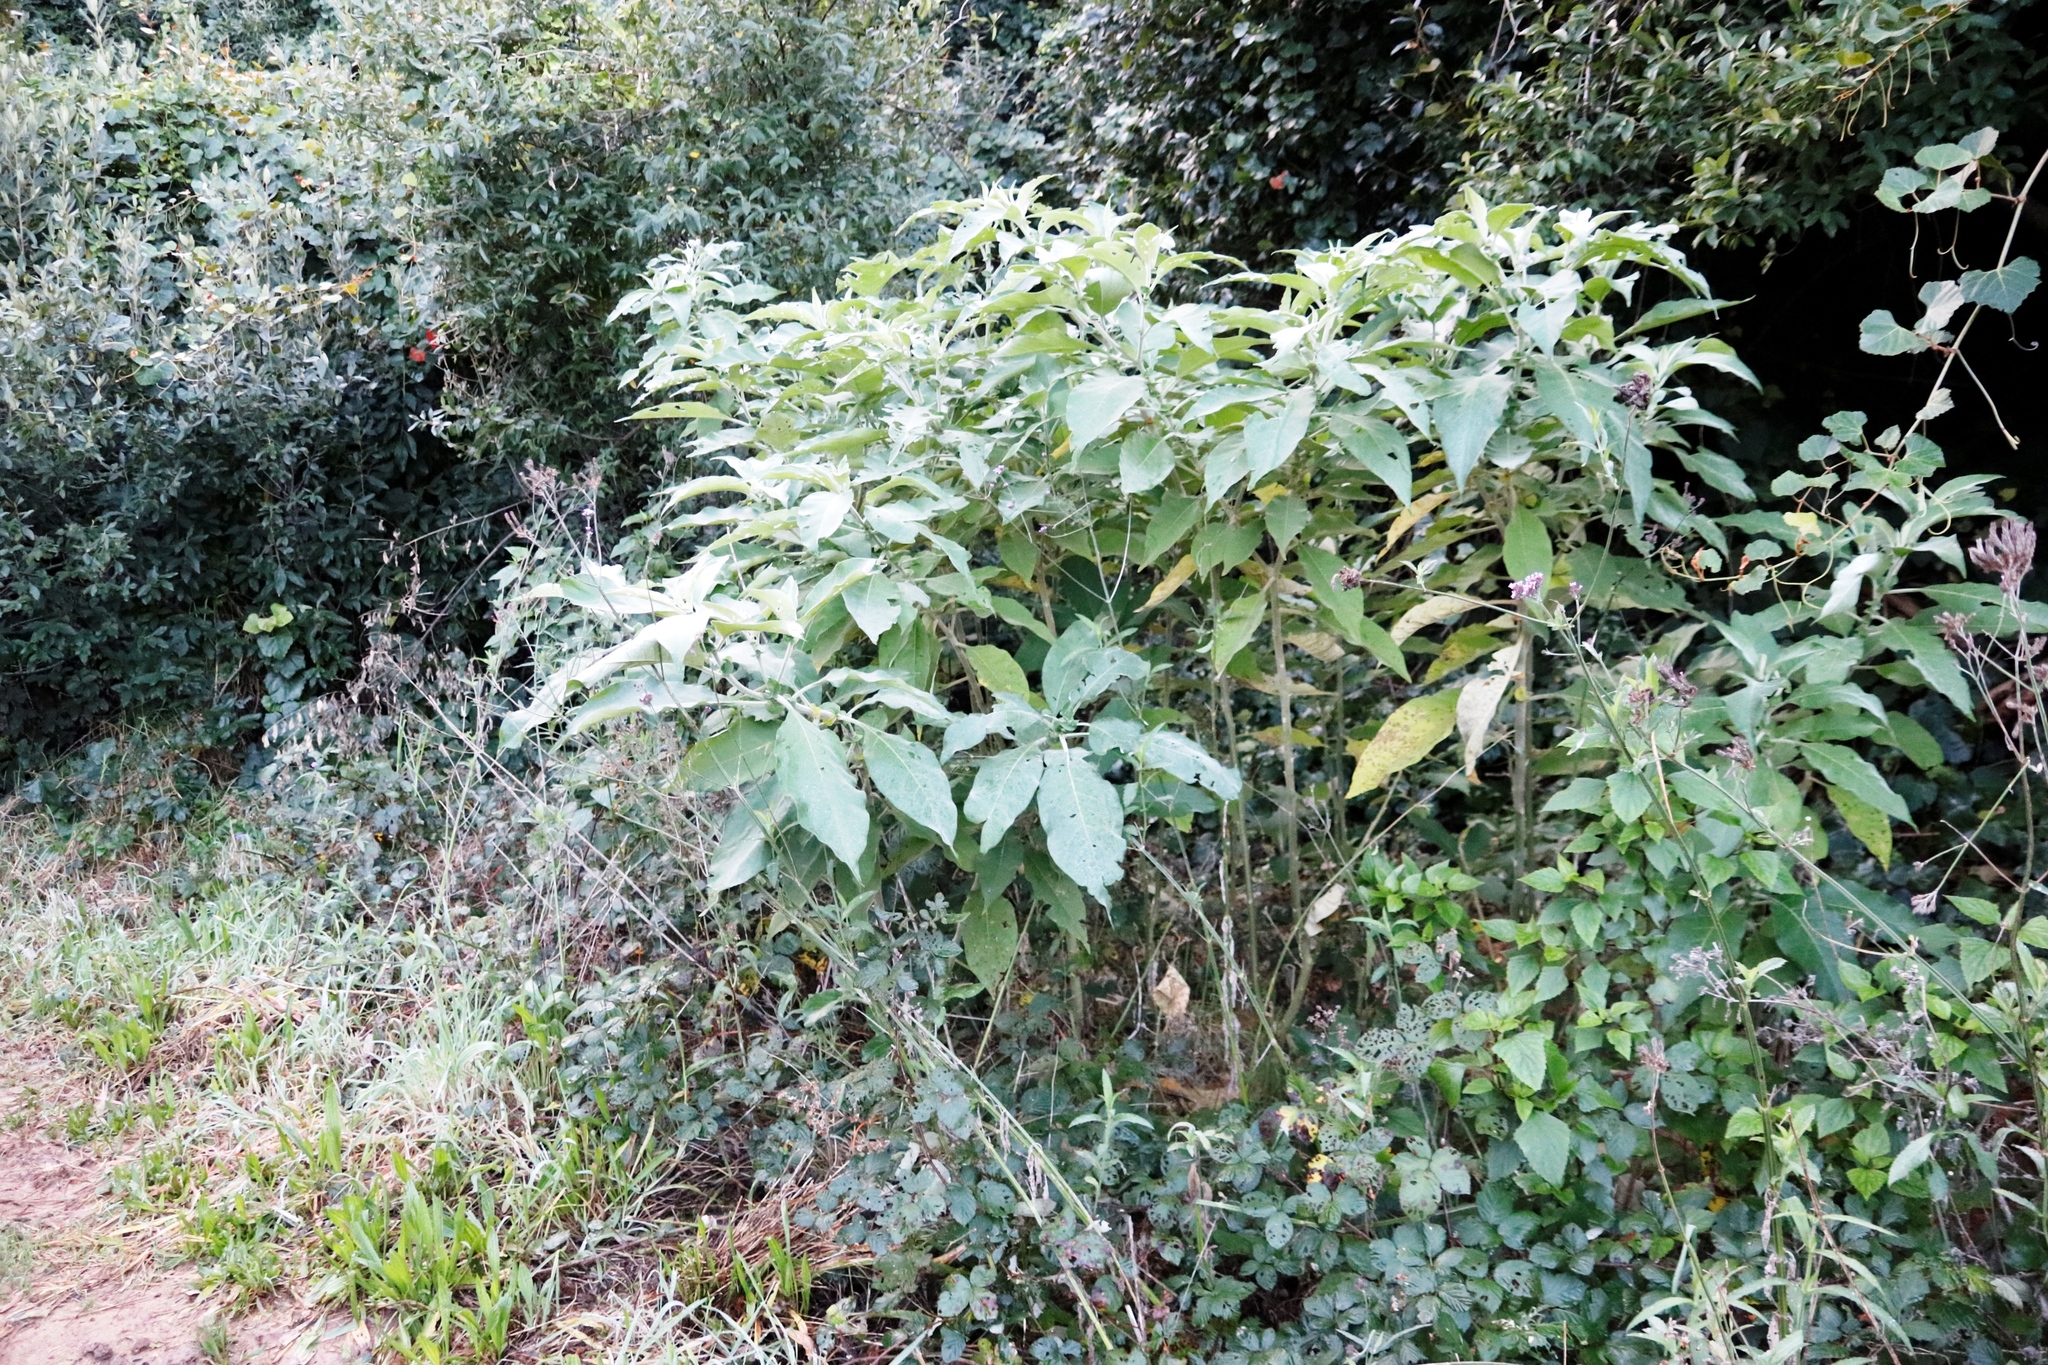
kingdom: Plantae
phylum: Tracheophyta
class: Magnoliopsida
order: Solanales
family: Solanaceae
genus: Solanum
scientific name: Solanum mauritianum
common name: Earleaf nightshade
